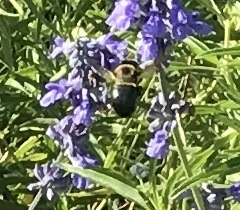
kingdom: Animalia
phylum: Arthropoda
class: Insecta
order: Hymenoptera
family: Apidae
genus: Xylocopa
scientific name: Xylocopa virginica
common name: Carpenter bee
